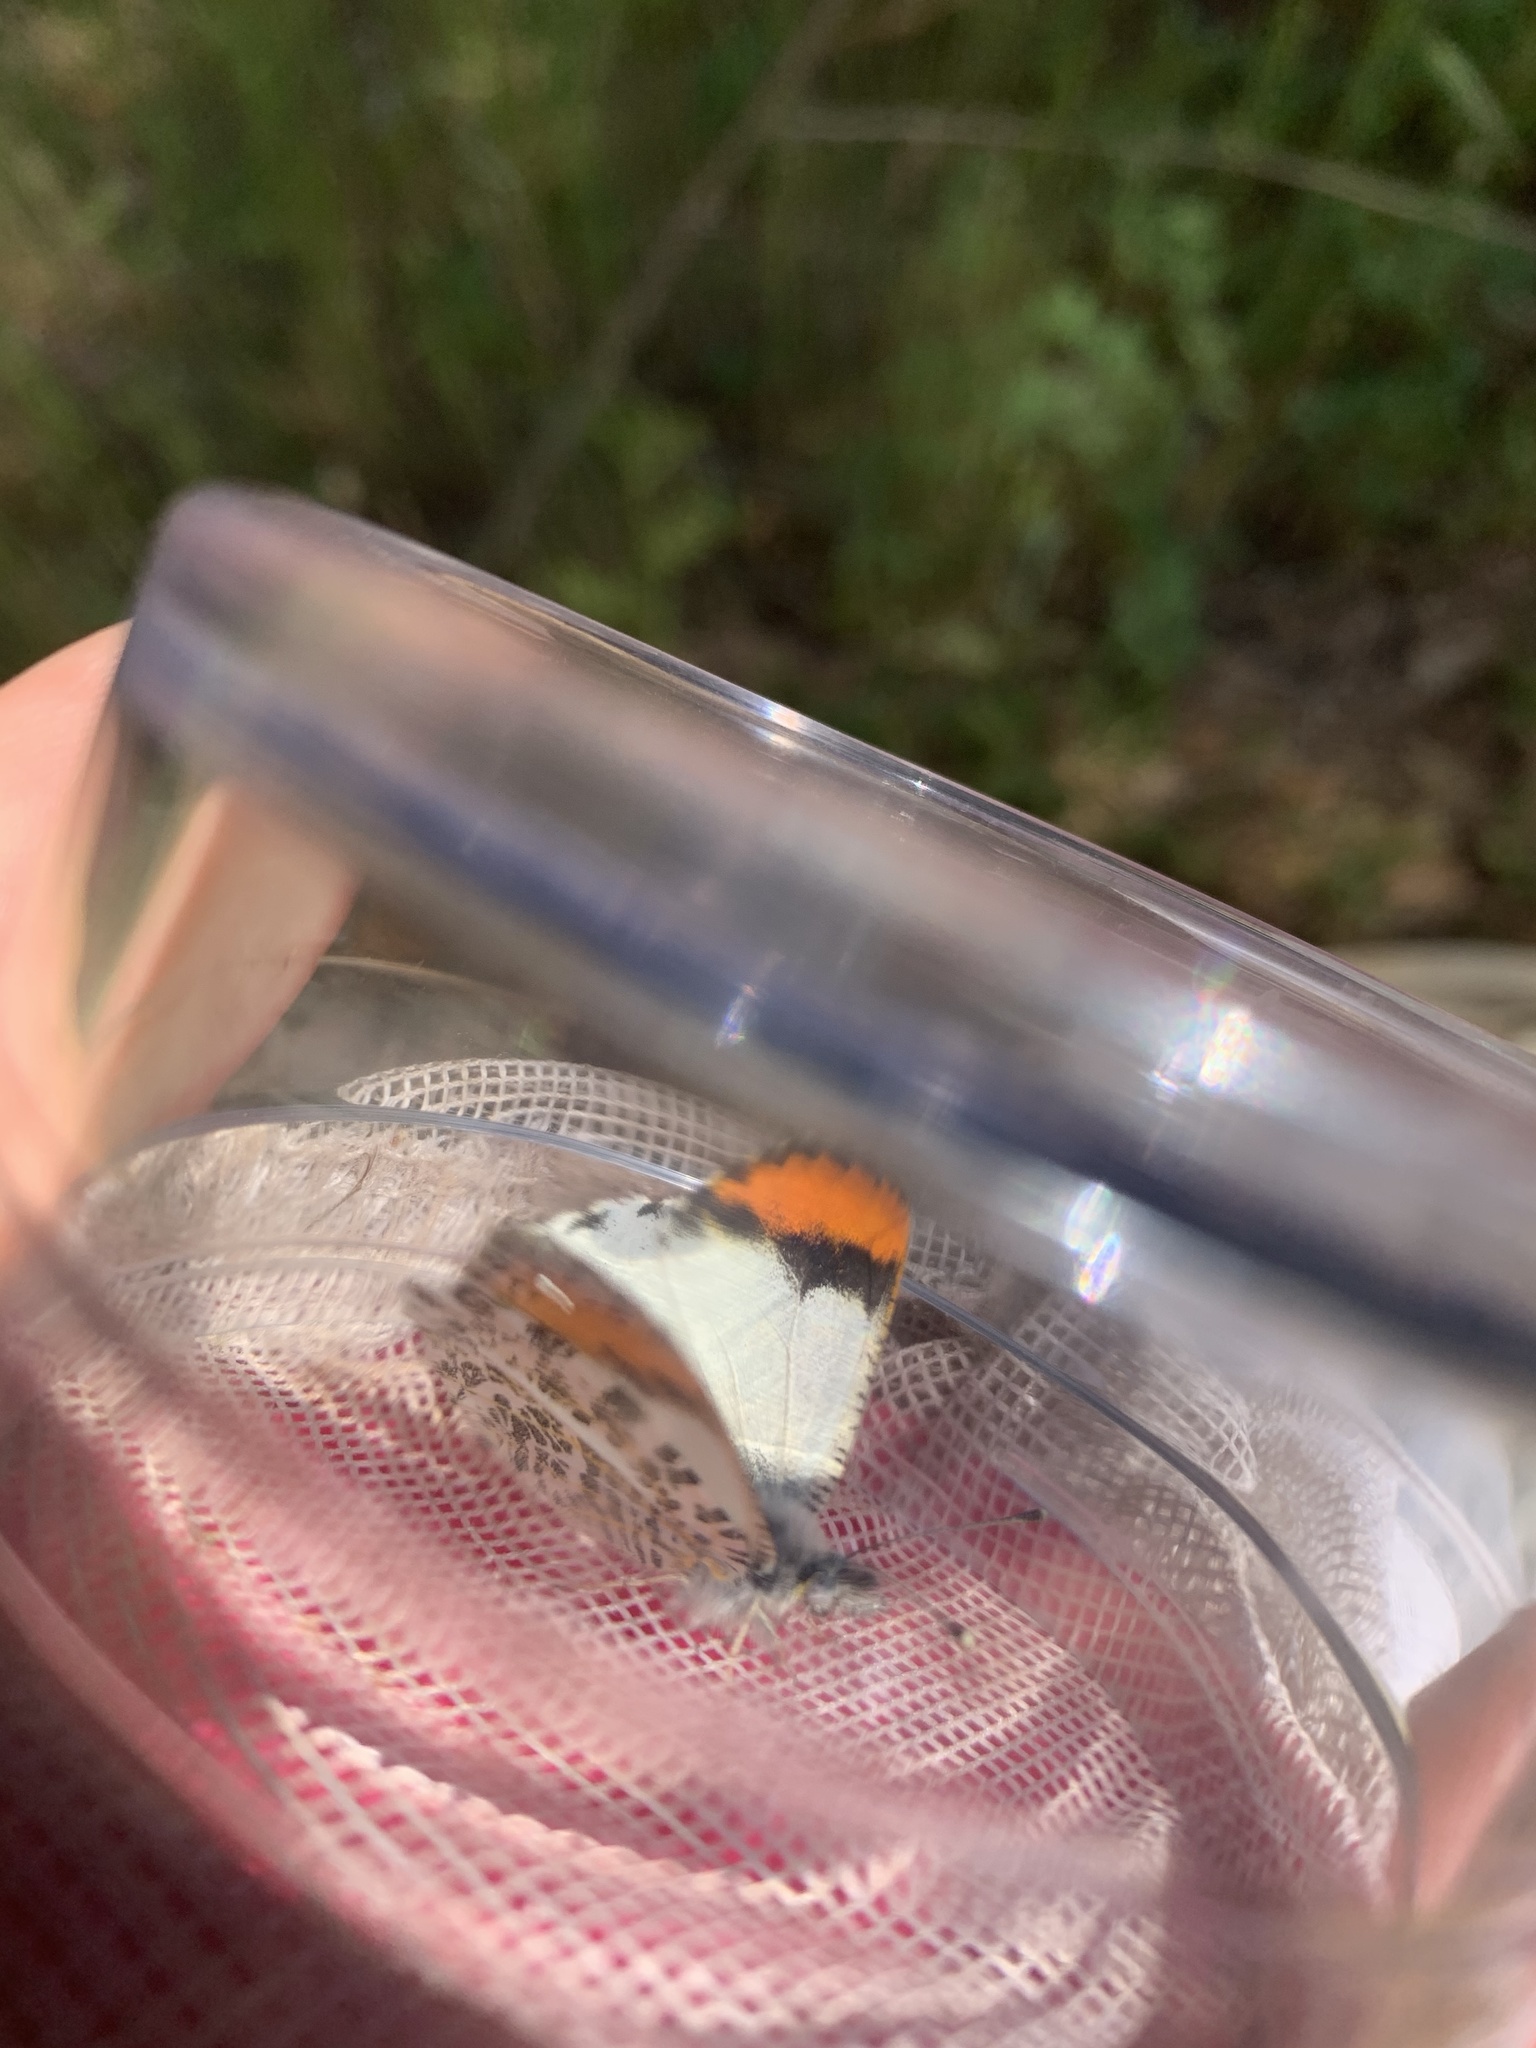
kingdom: Animalia
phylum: Arthropoda
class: Insecta
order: Lepidoptera
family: Pieridae
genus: Anthocharis
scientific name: Anthocharis sara
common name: Sara's orangetip
